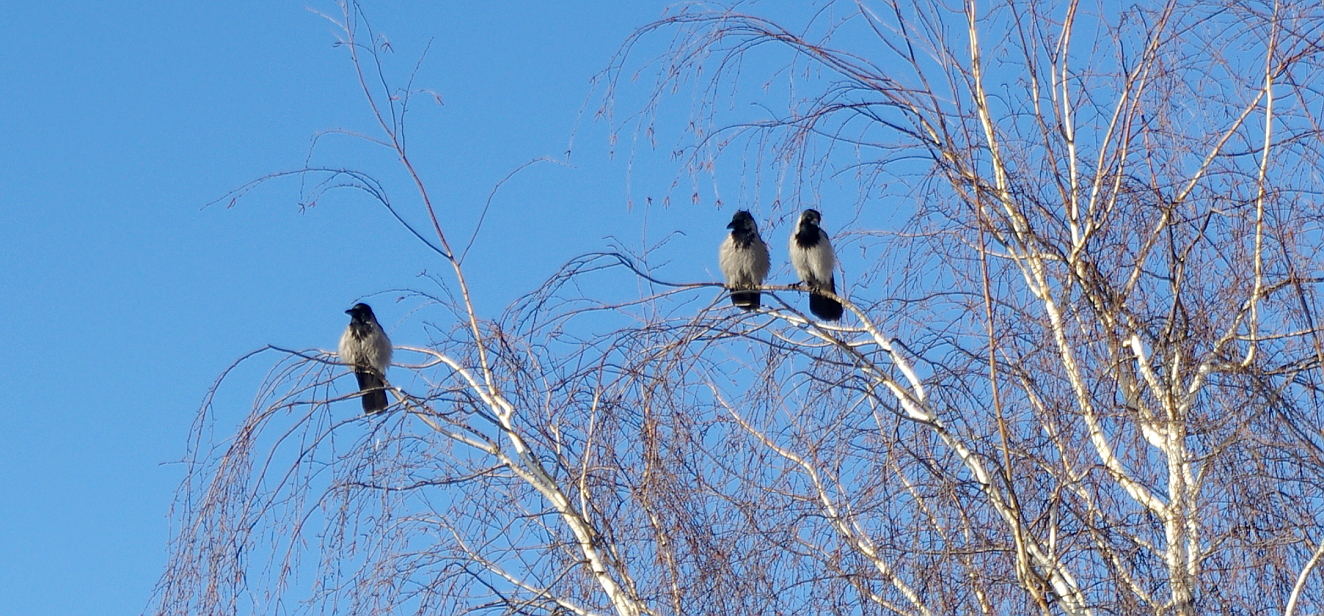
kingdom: Animalia
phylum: Chordata
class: Aves
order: Passeriformes
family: Corvidae
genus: Corvus
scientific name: Corvus cornix
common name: Hooded crow
